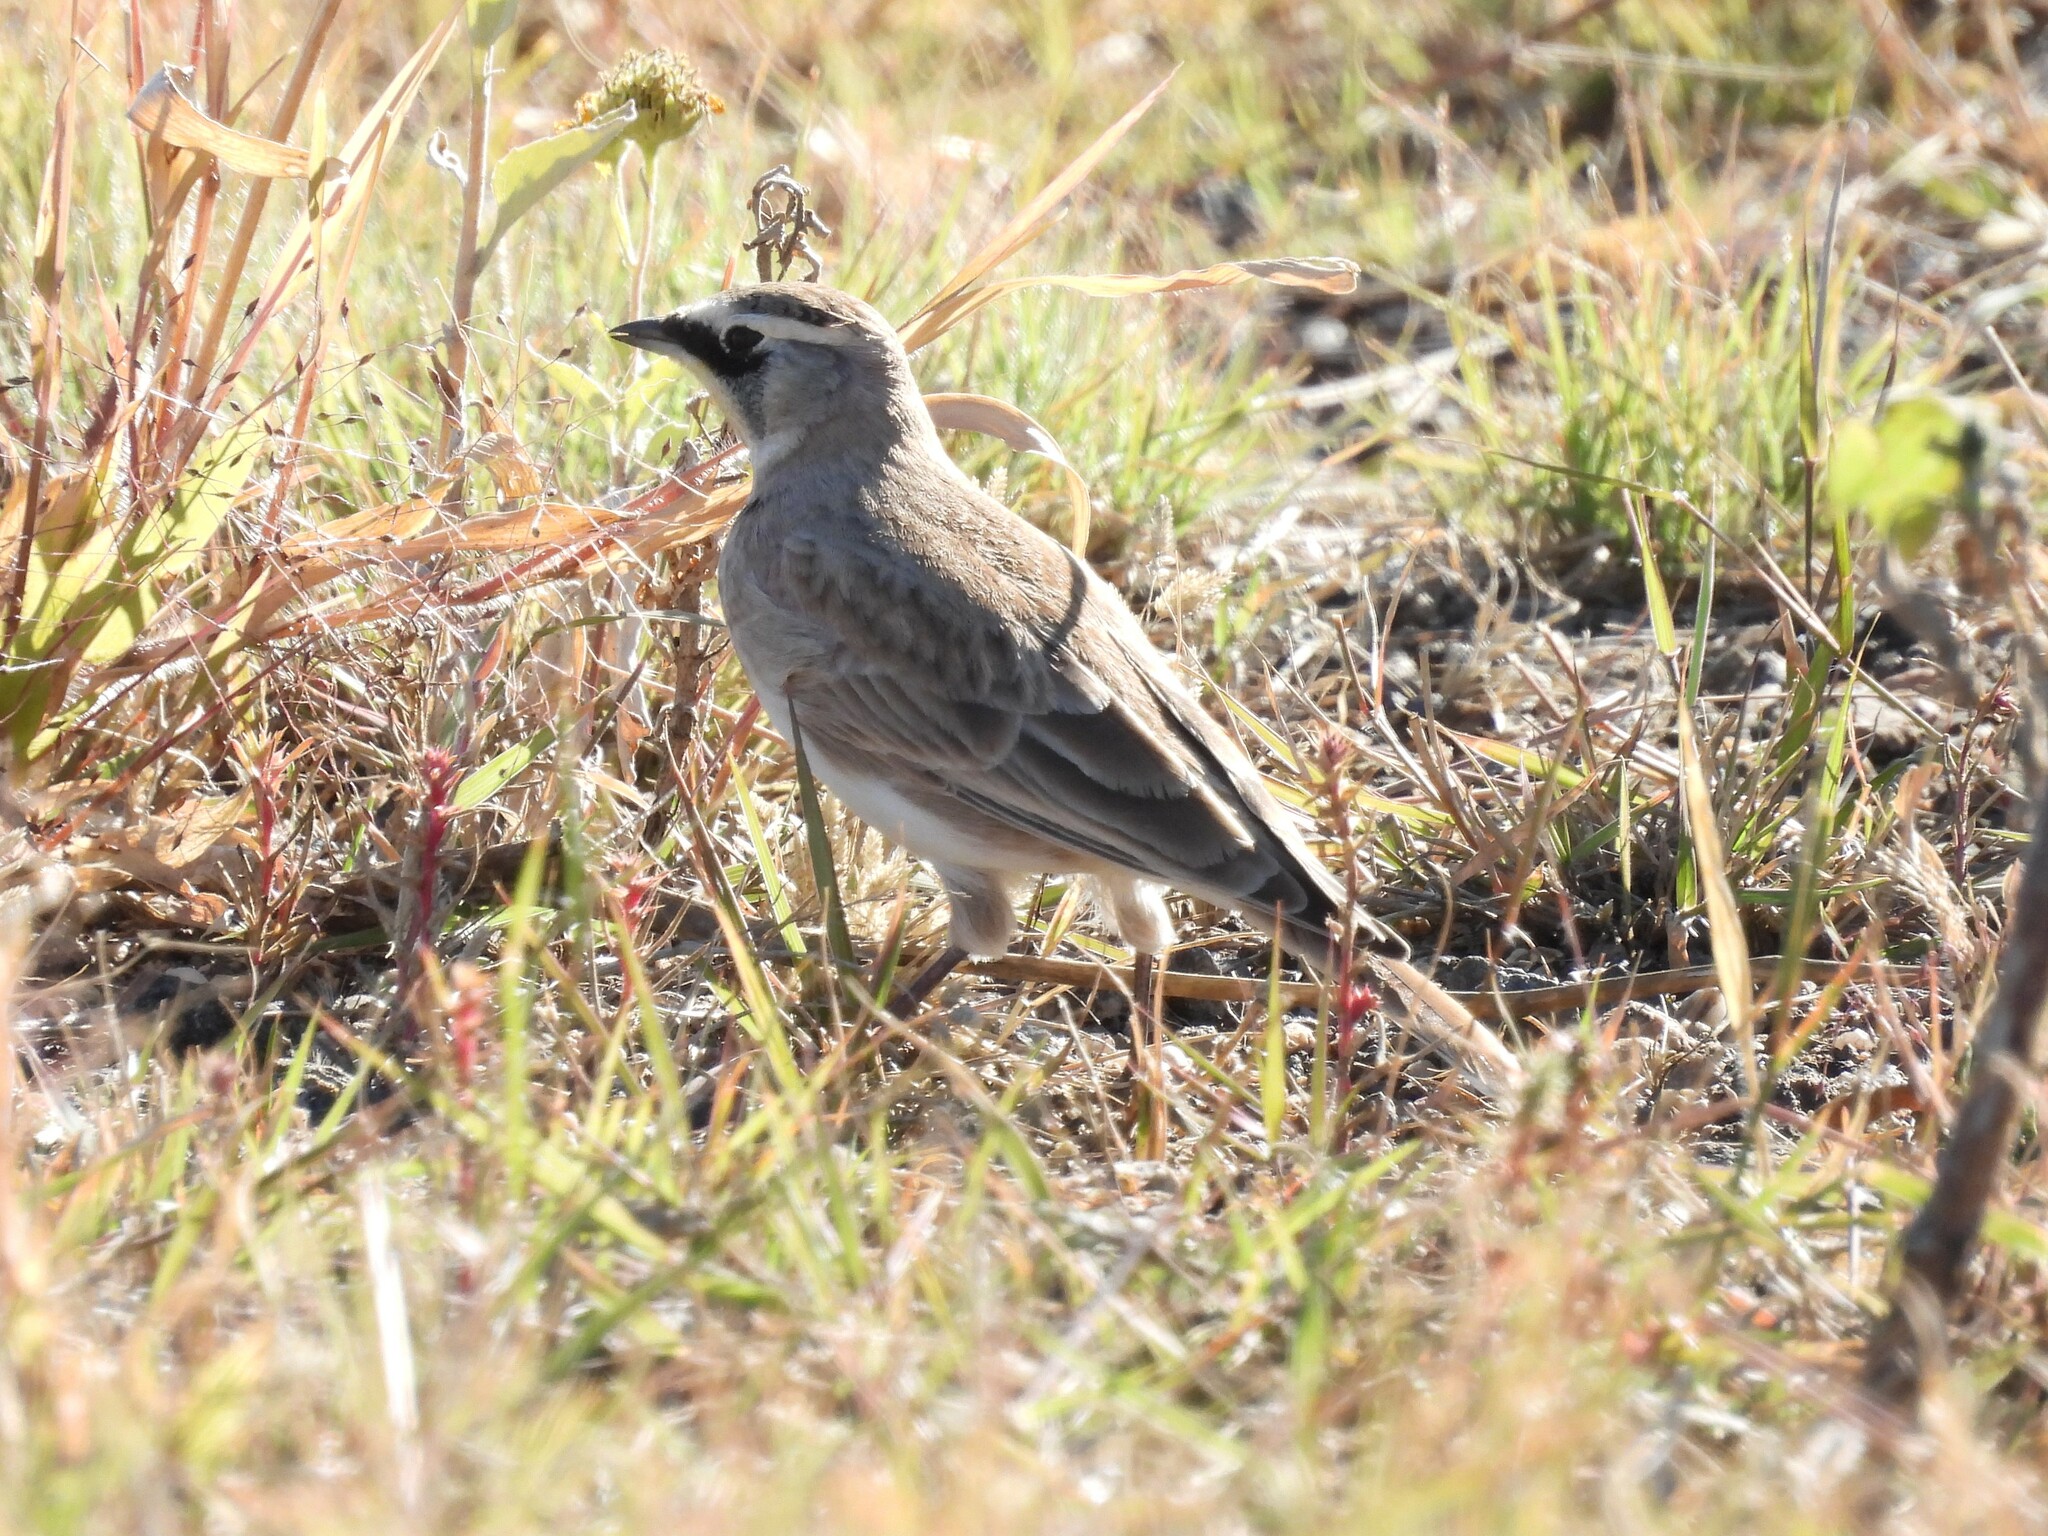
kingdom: Animalia
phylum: Chordata
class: Aves
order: Passeriformes
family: Alaudidae
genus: Eremophila
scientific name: Eremophila alpestris
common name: Horned lark
